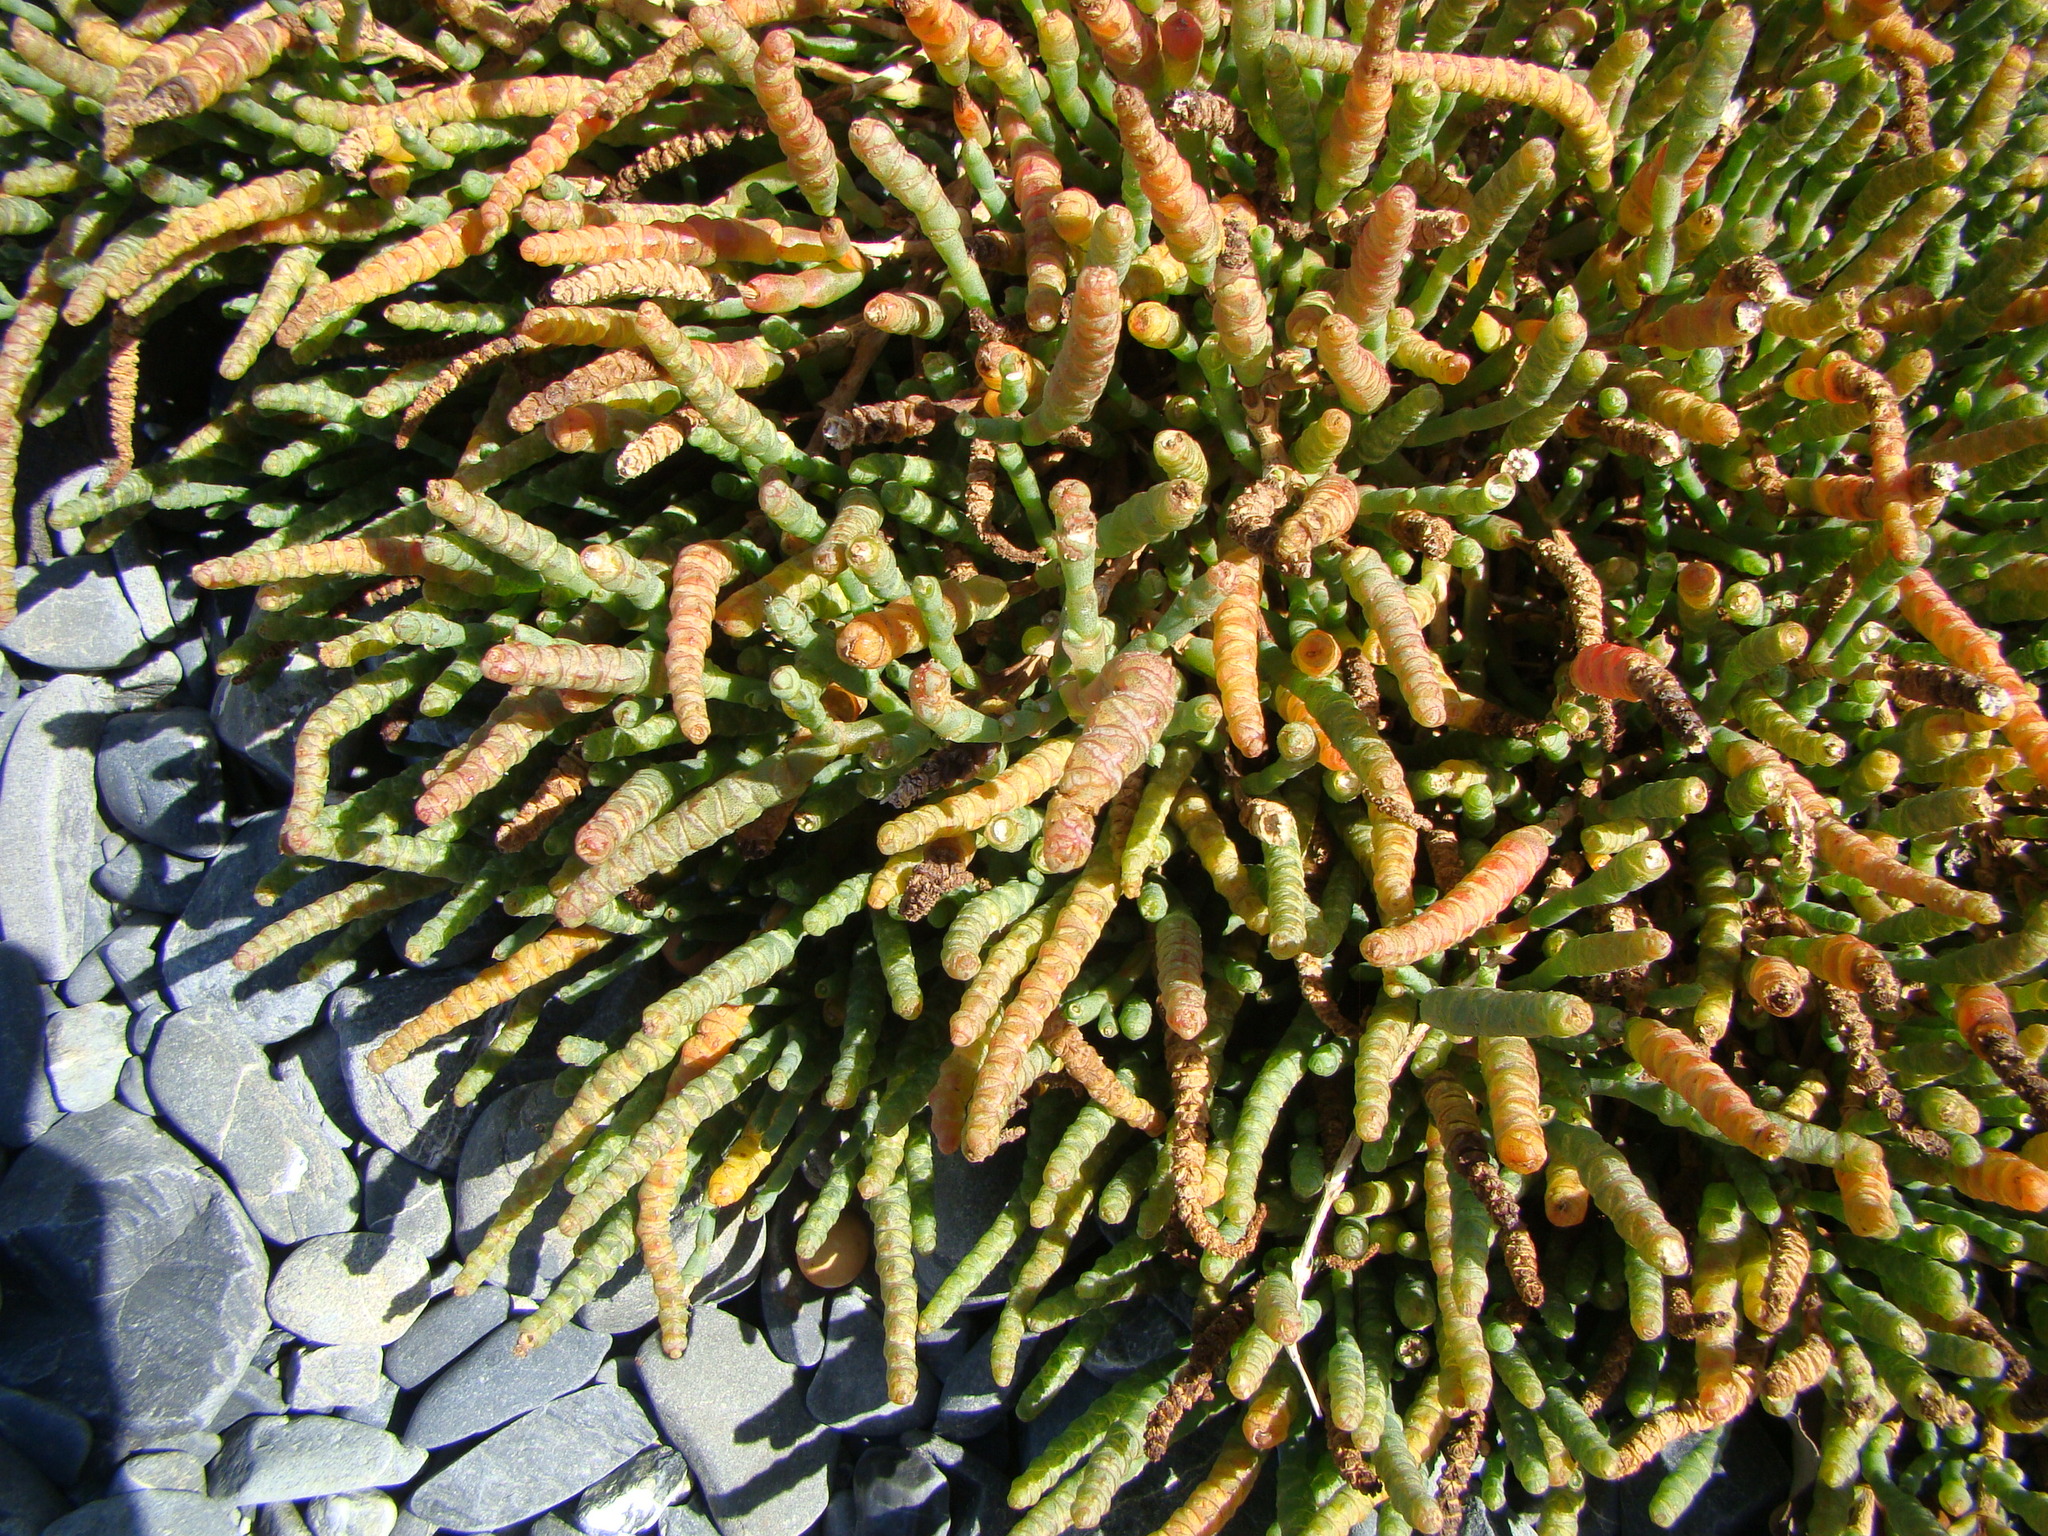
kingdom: Plantae
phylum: Tracheophyta
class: Magnoliopsida
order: Caryophyllales
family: Amaranthaceae
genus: Salicornia
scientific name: Salicornia quinqueflora
